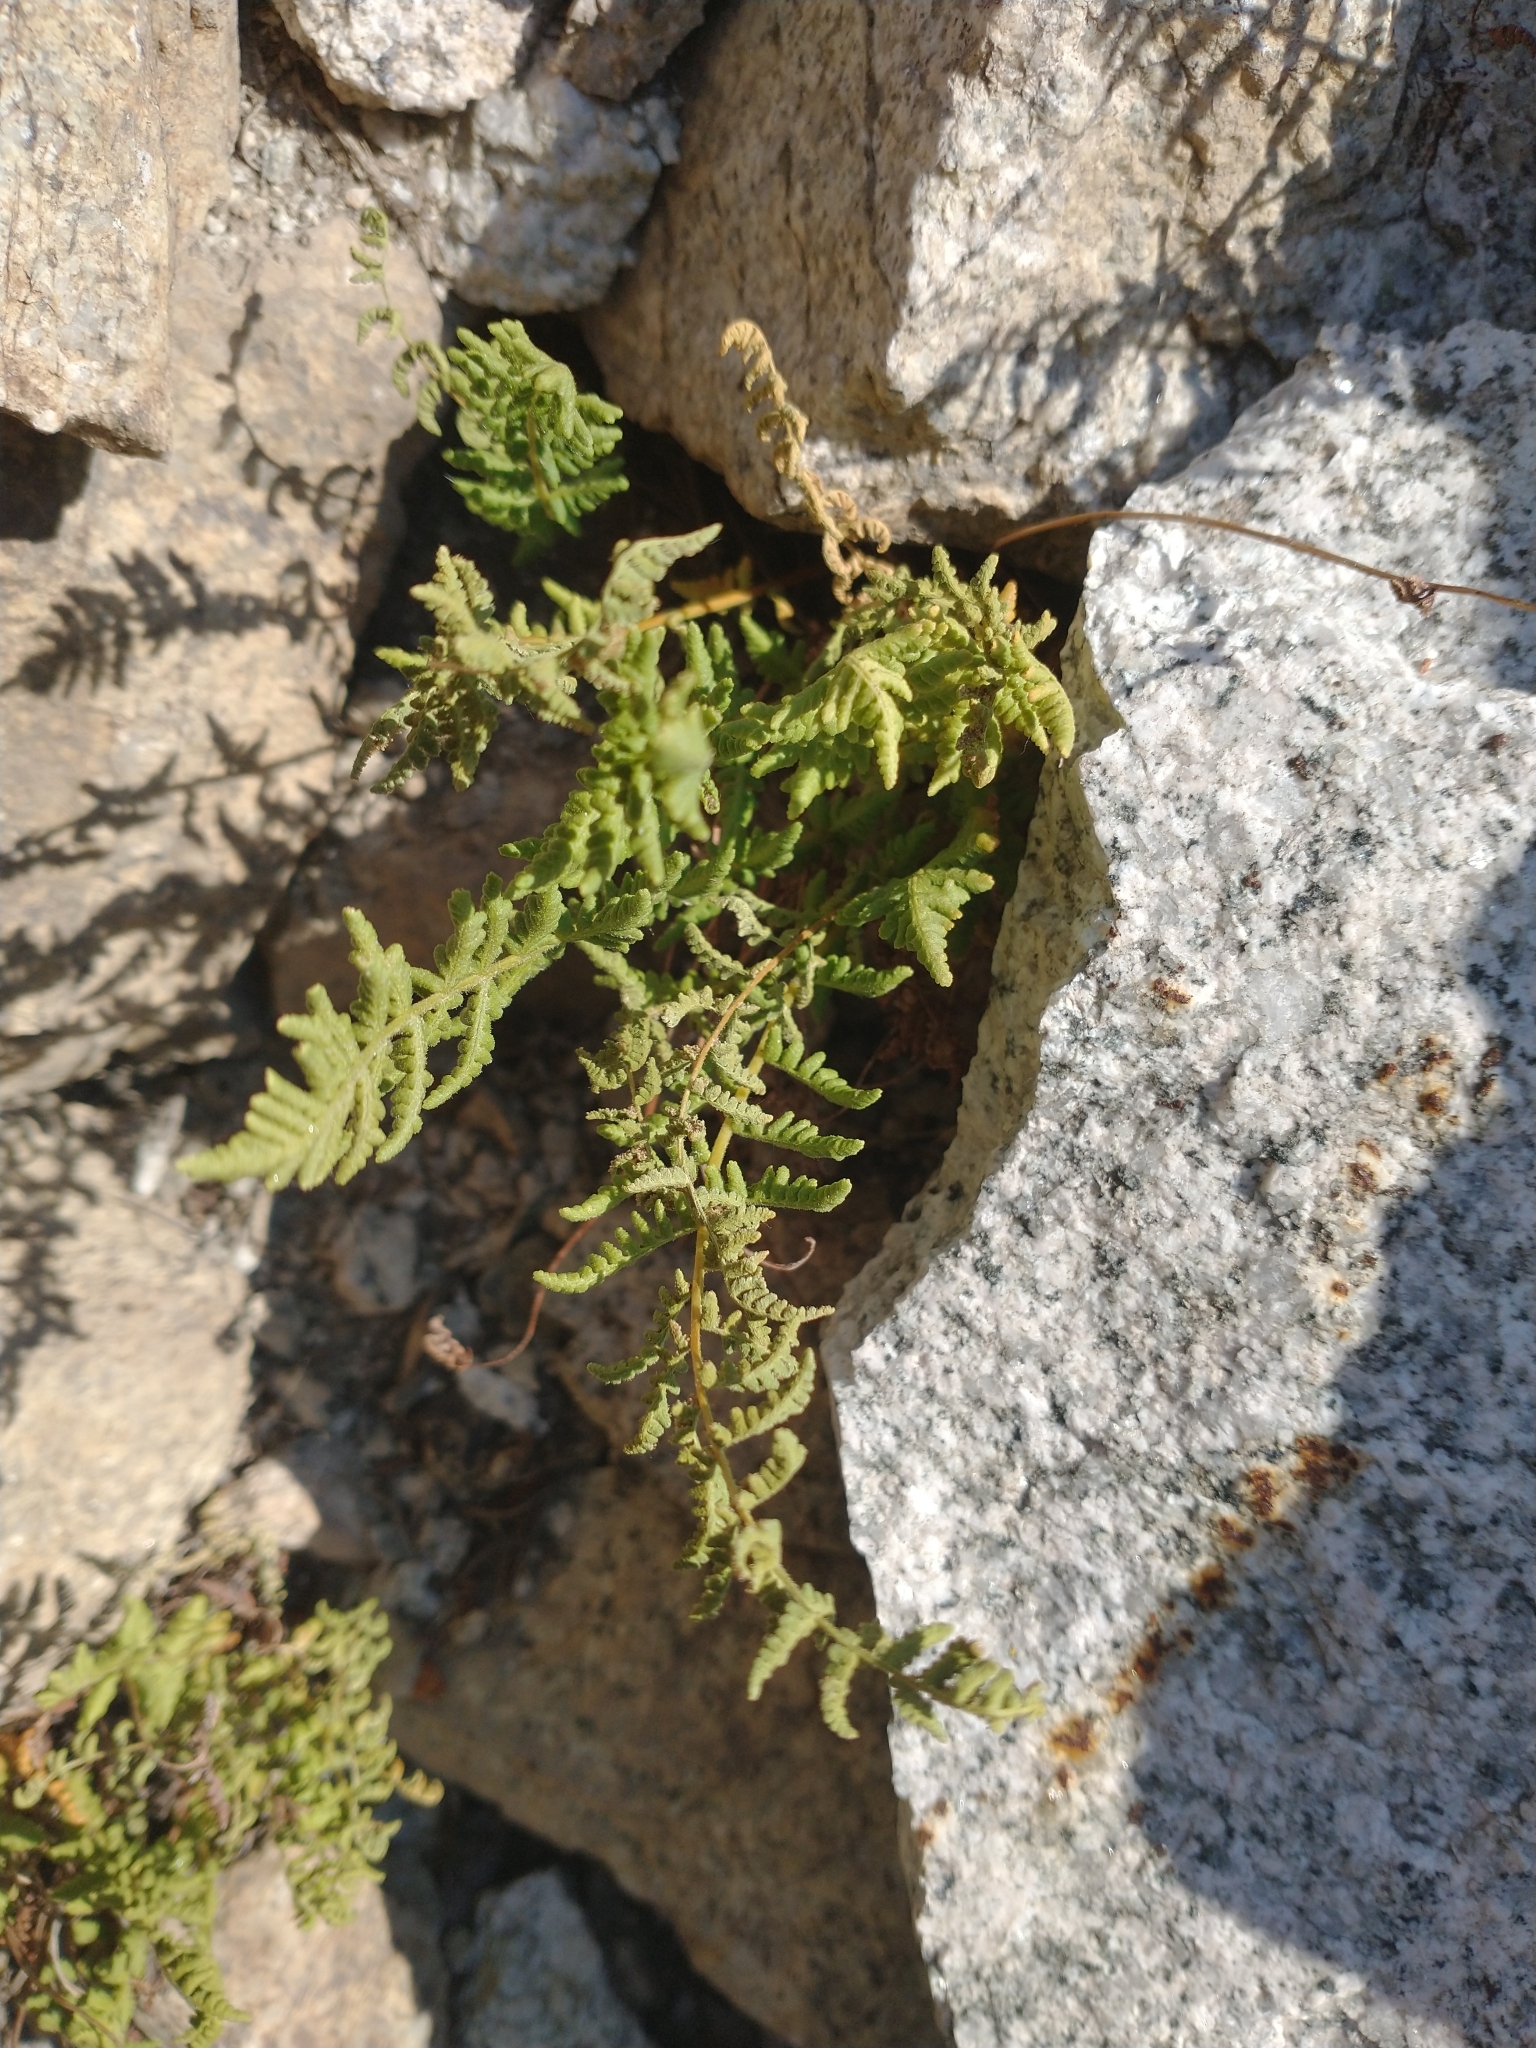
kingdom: Plantae
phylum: Tracheophyta
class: Polypodiopsida
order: Polypodiales
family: Woodsiaceae
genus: Physematium
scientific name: Physematium scopulinum
